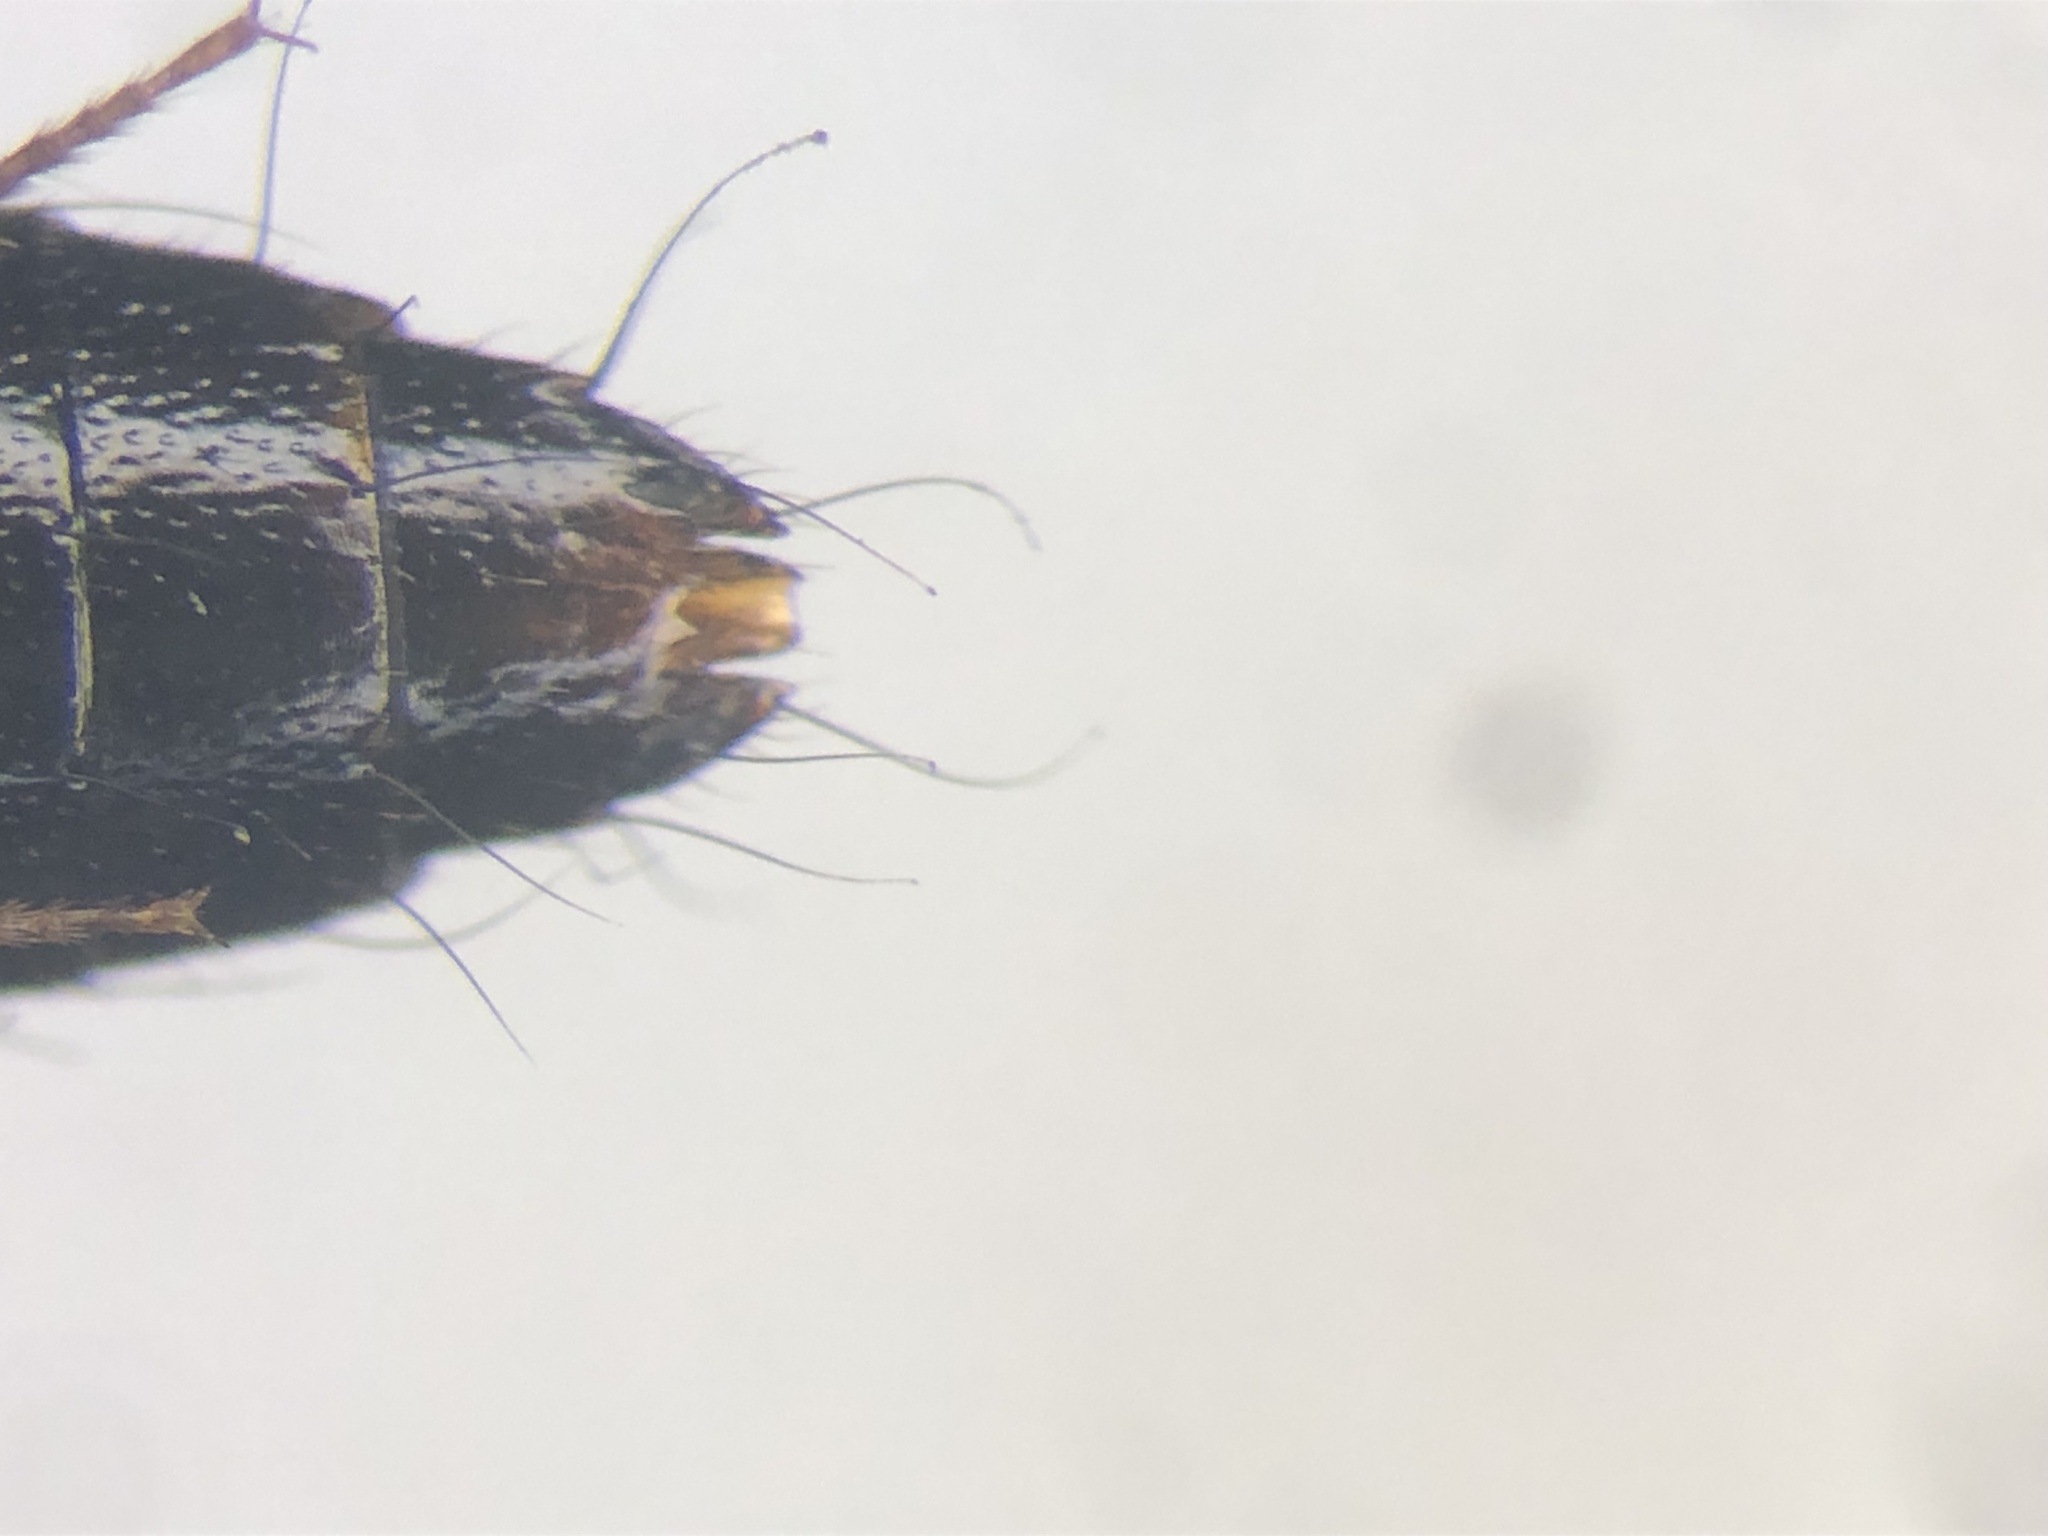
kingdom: Animalia
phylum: Arthropoda
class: Insecta
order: Coleoptera
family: Staphylinidae
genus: Tachinus
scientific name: Tachinus basalis
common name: Staph beetle
